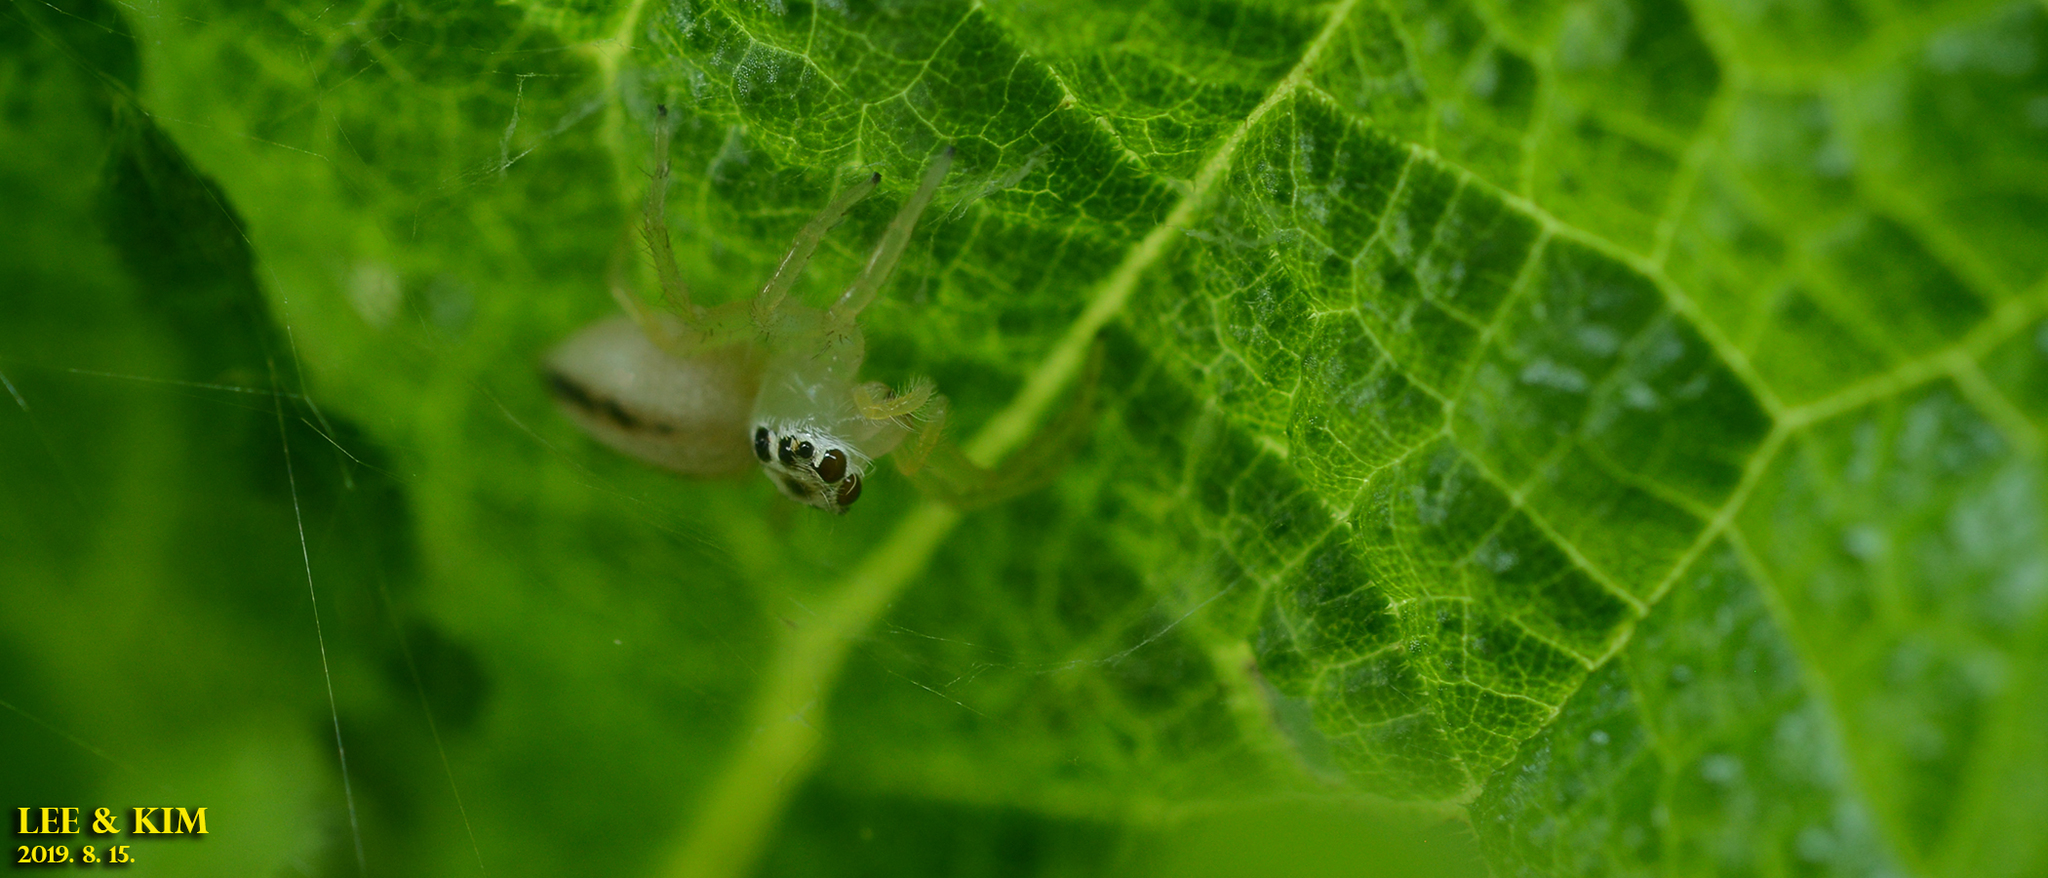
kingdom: Animalia
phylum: Arthropoda
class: Arachnida
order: Araneae
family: Salticidae
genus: Telamonia
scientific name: Telamonia vlijmi
